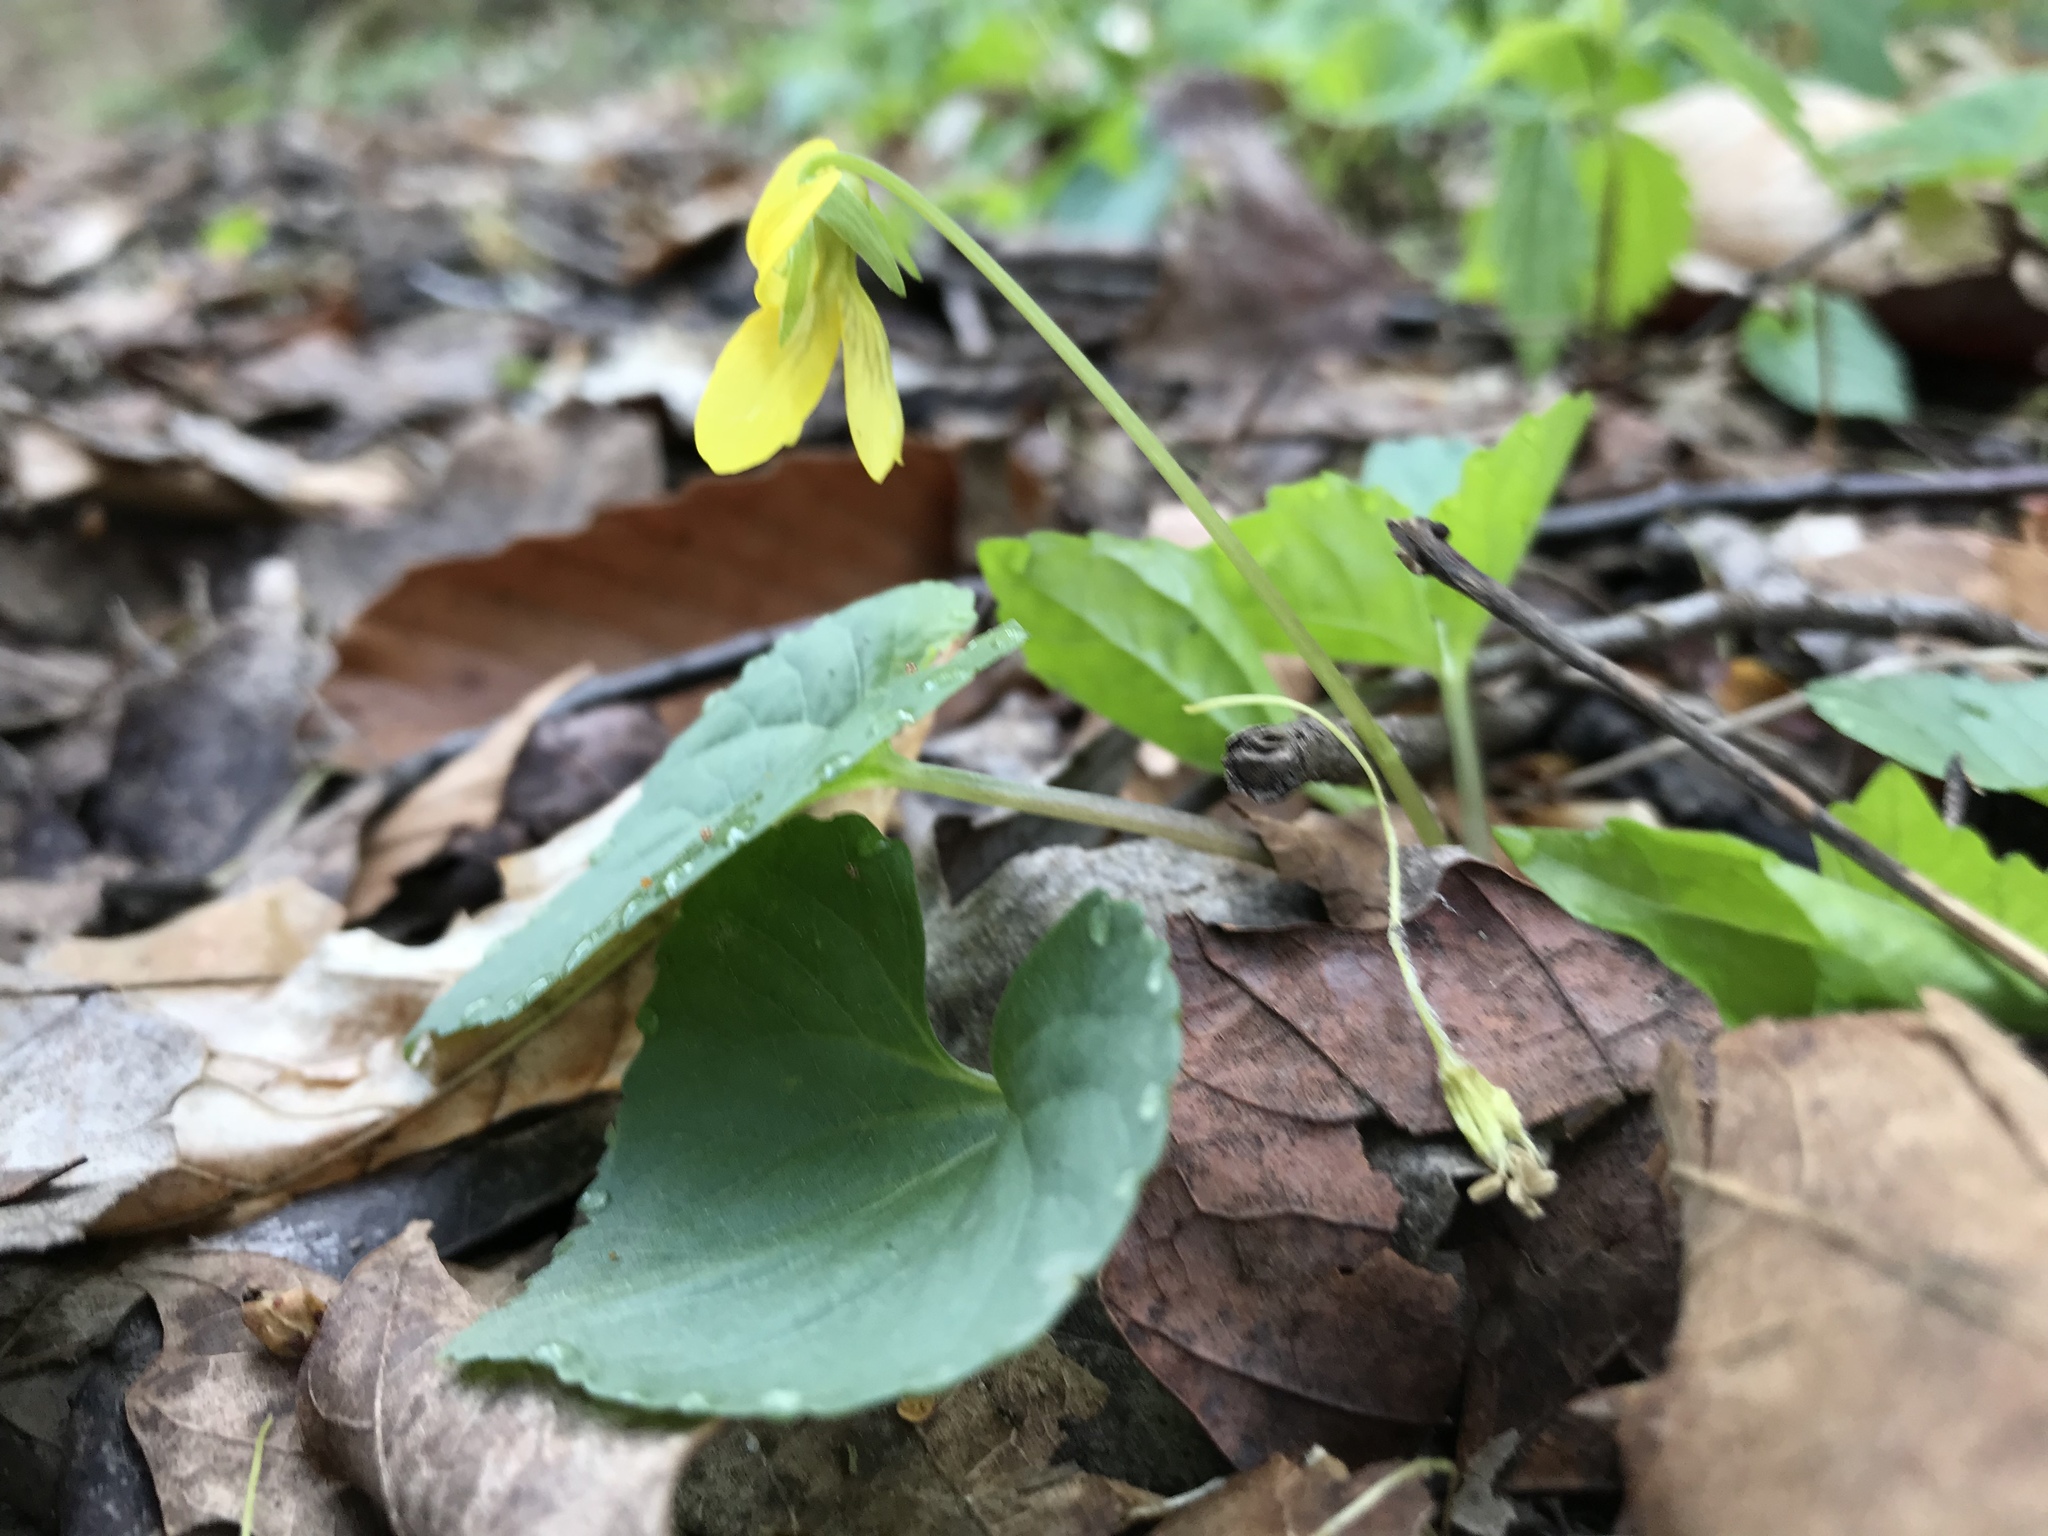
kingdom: Plantae
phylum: Tracheophyta
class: Magnoliopsida
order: Malpighiales
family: Violaceae
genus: Viola
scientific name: Viola eriocarpa
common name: Smooth yellow violet
